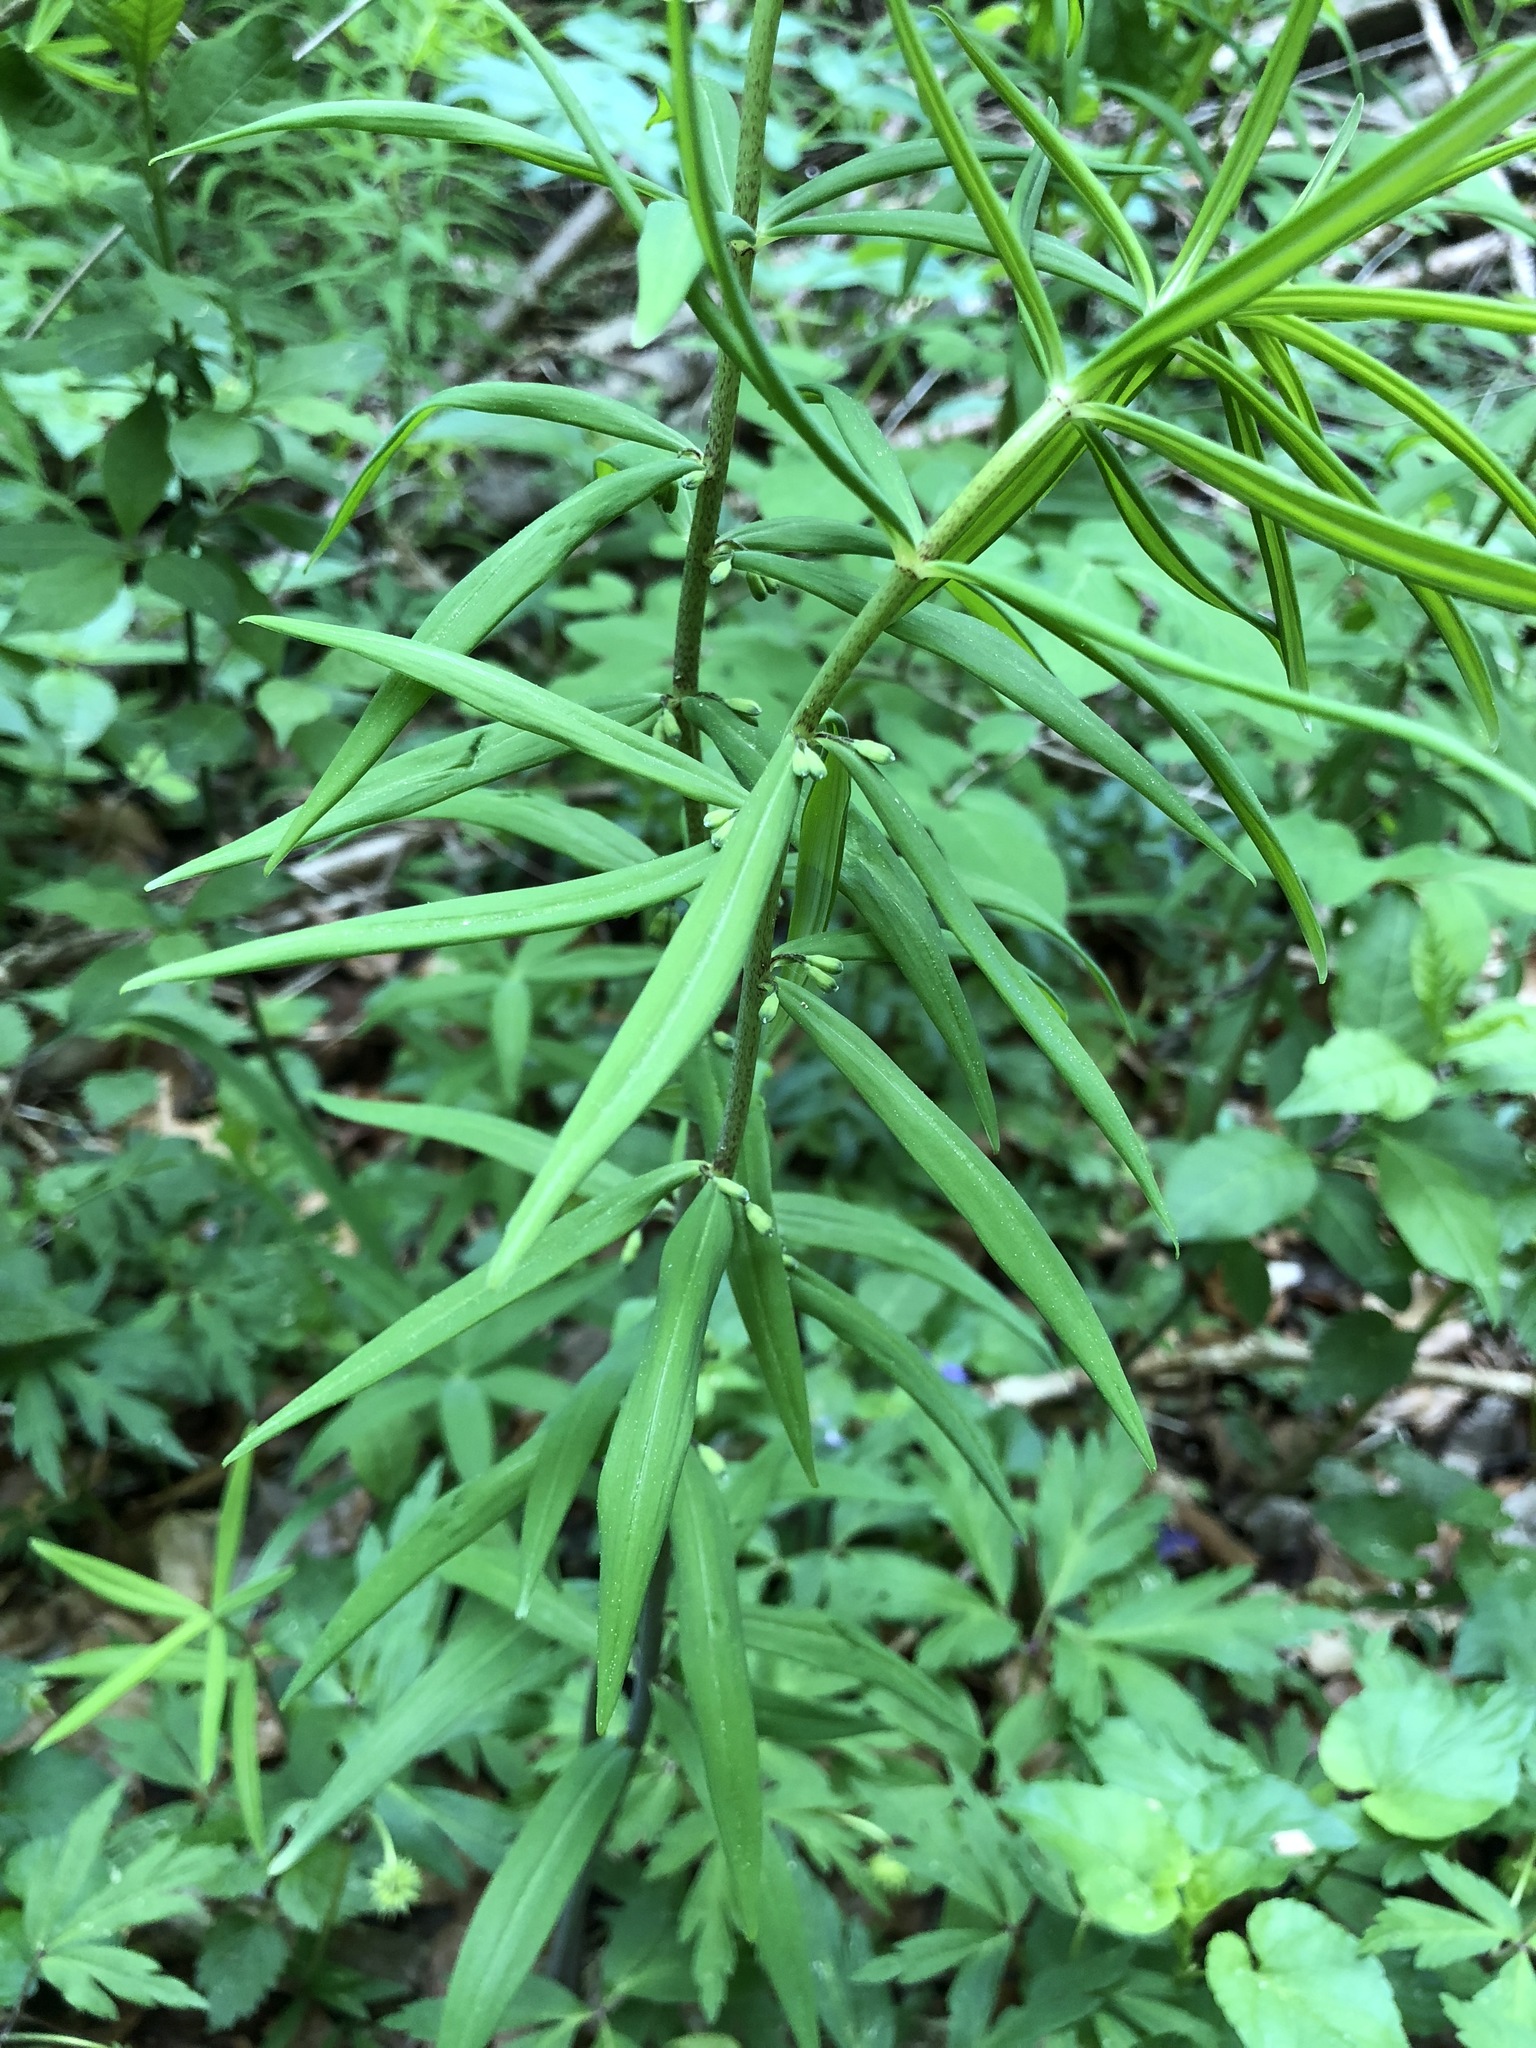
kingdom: Plantae
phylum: Tracheophyta
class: Liliopsida
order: Asparagales
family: Asparagaceae
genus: Polygonatum
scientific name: Polygonatum verticillatum
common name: Whorled solomon's-seal
